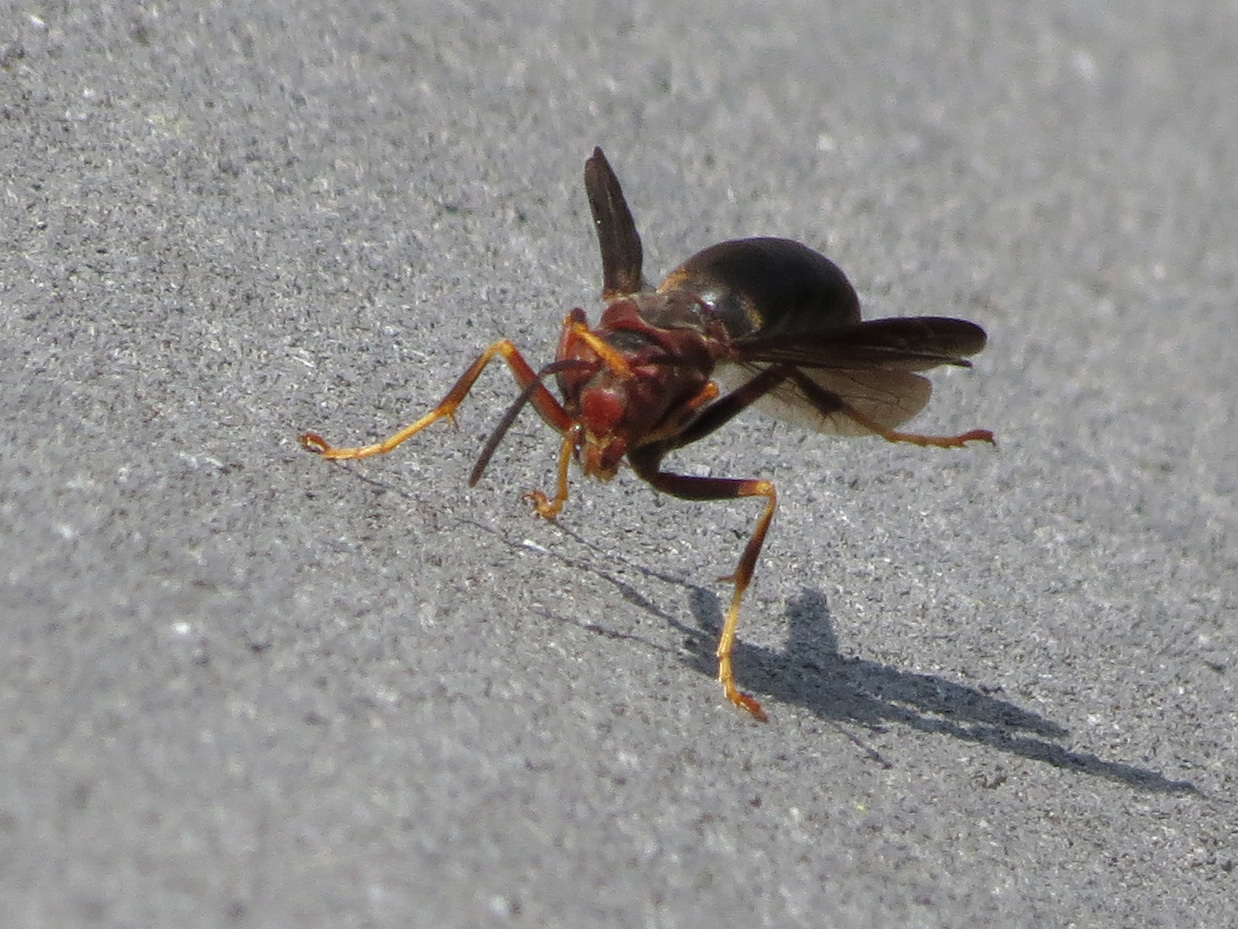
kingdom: Animalia
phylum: Arthropoda
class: Insecta
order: Hymenoptera
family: Eumenidae
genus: Polistes
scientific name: Polistes metricus
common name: Metric paper wasp
